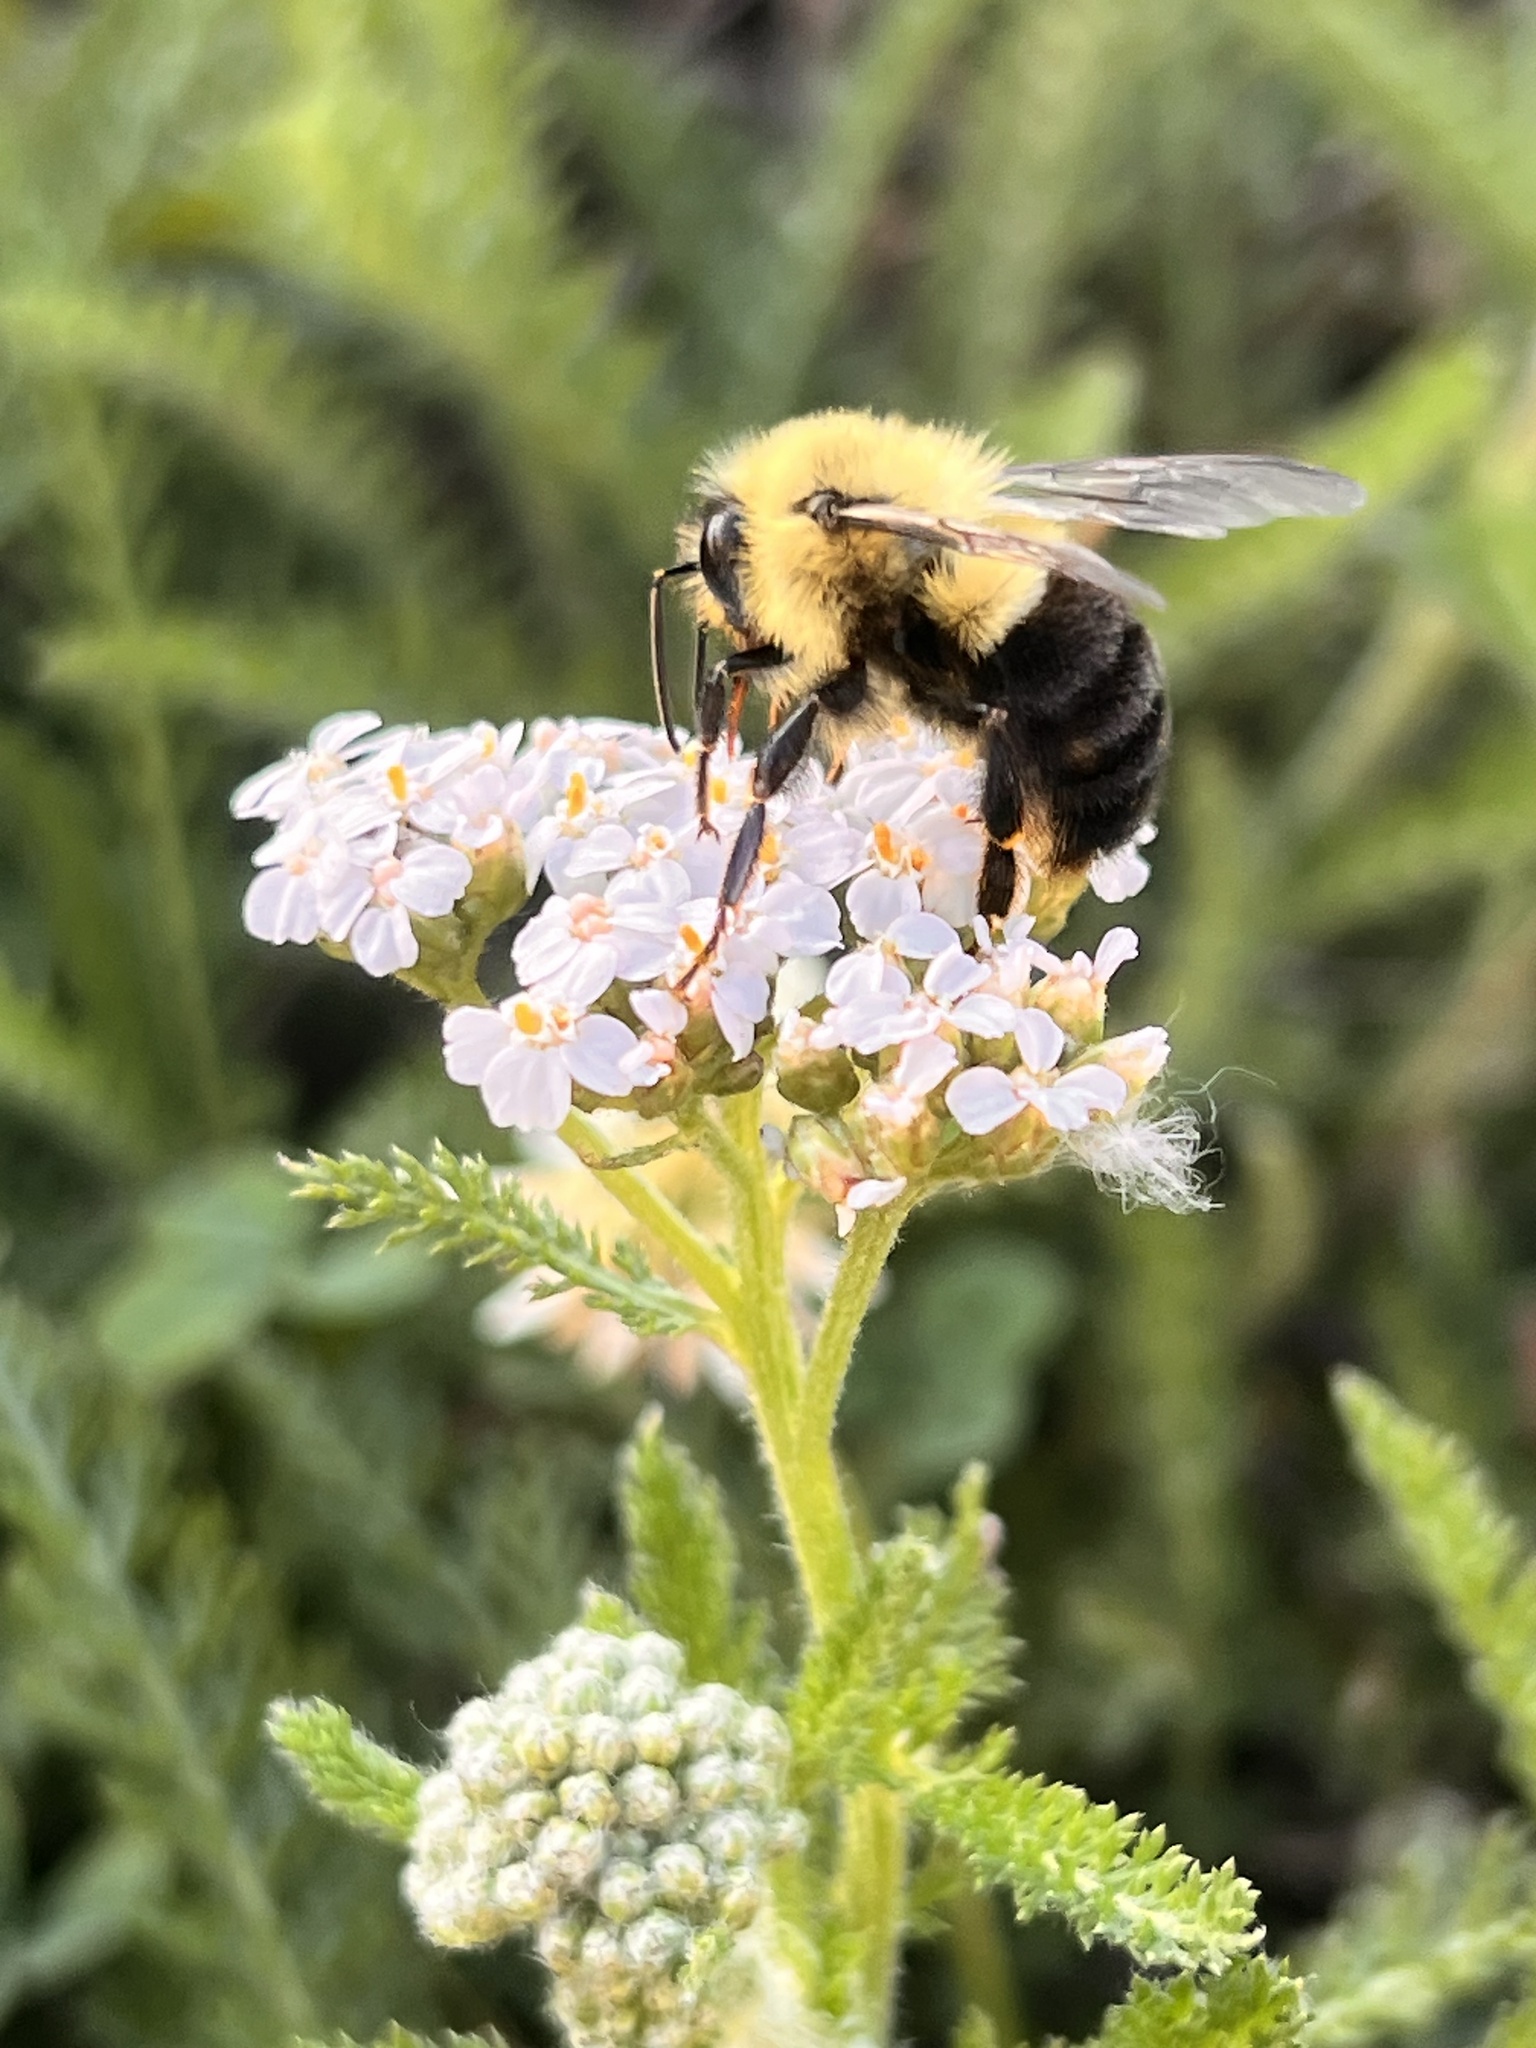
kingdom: Animalia
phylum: Arthropoda
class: Insecta
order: Hymenoptera
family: Apidae
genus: Bombus
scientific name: Bombus impatiens
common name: Common eastern bumble bee
